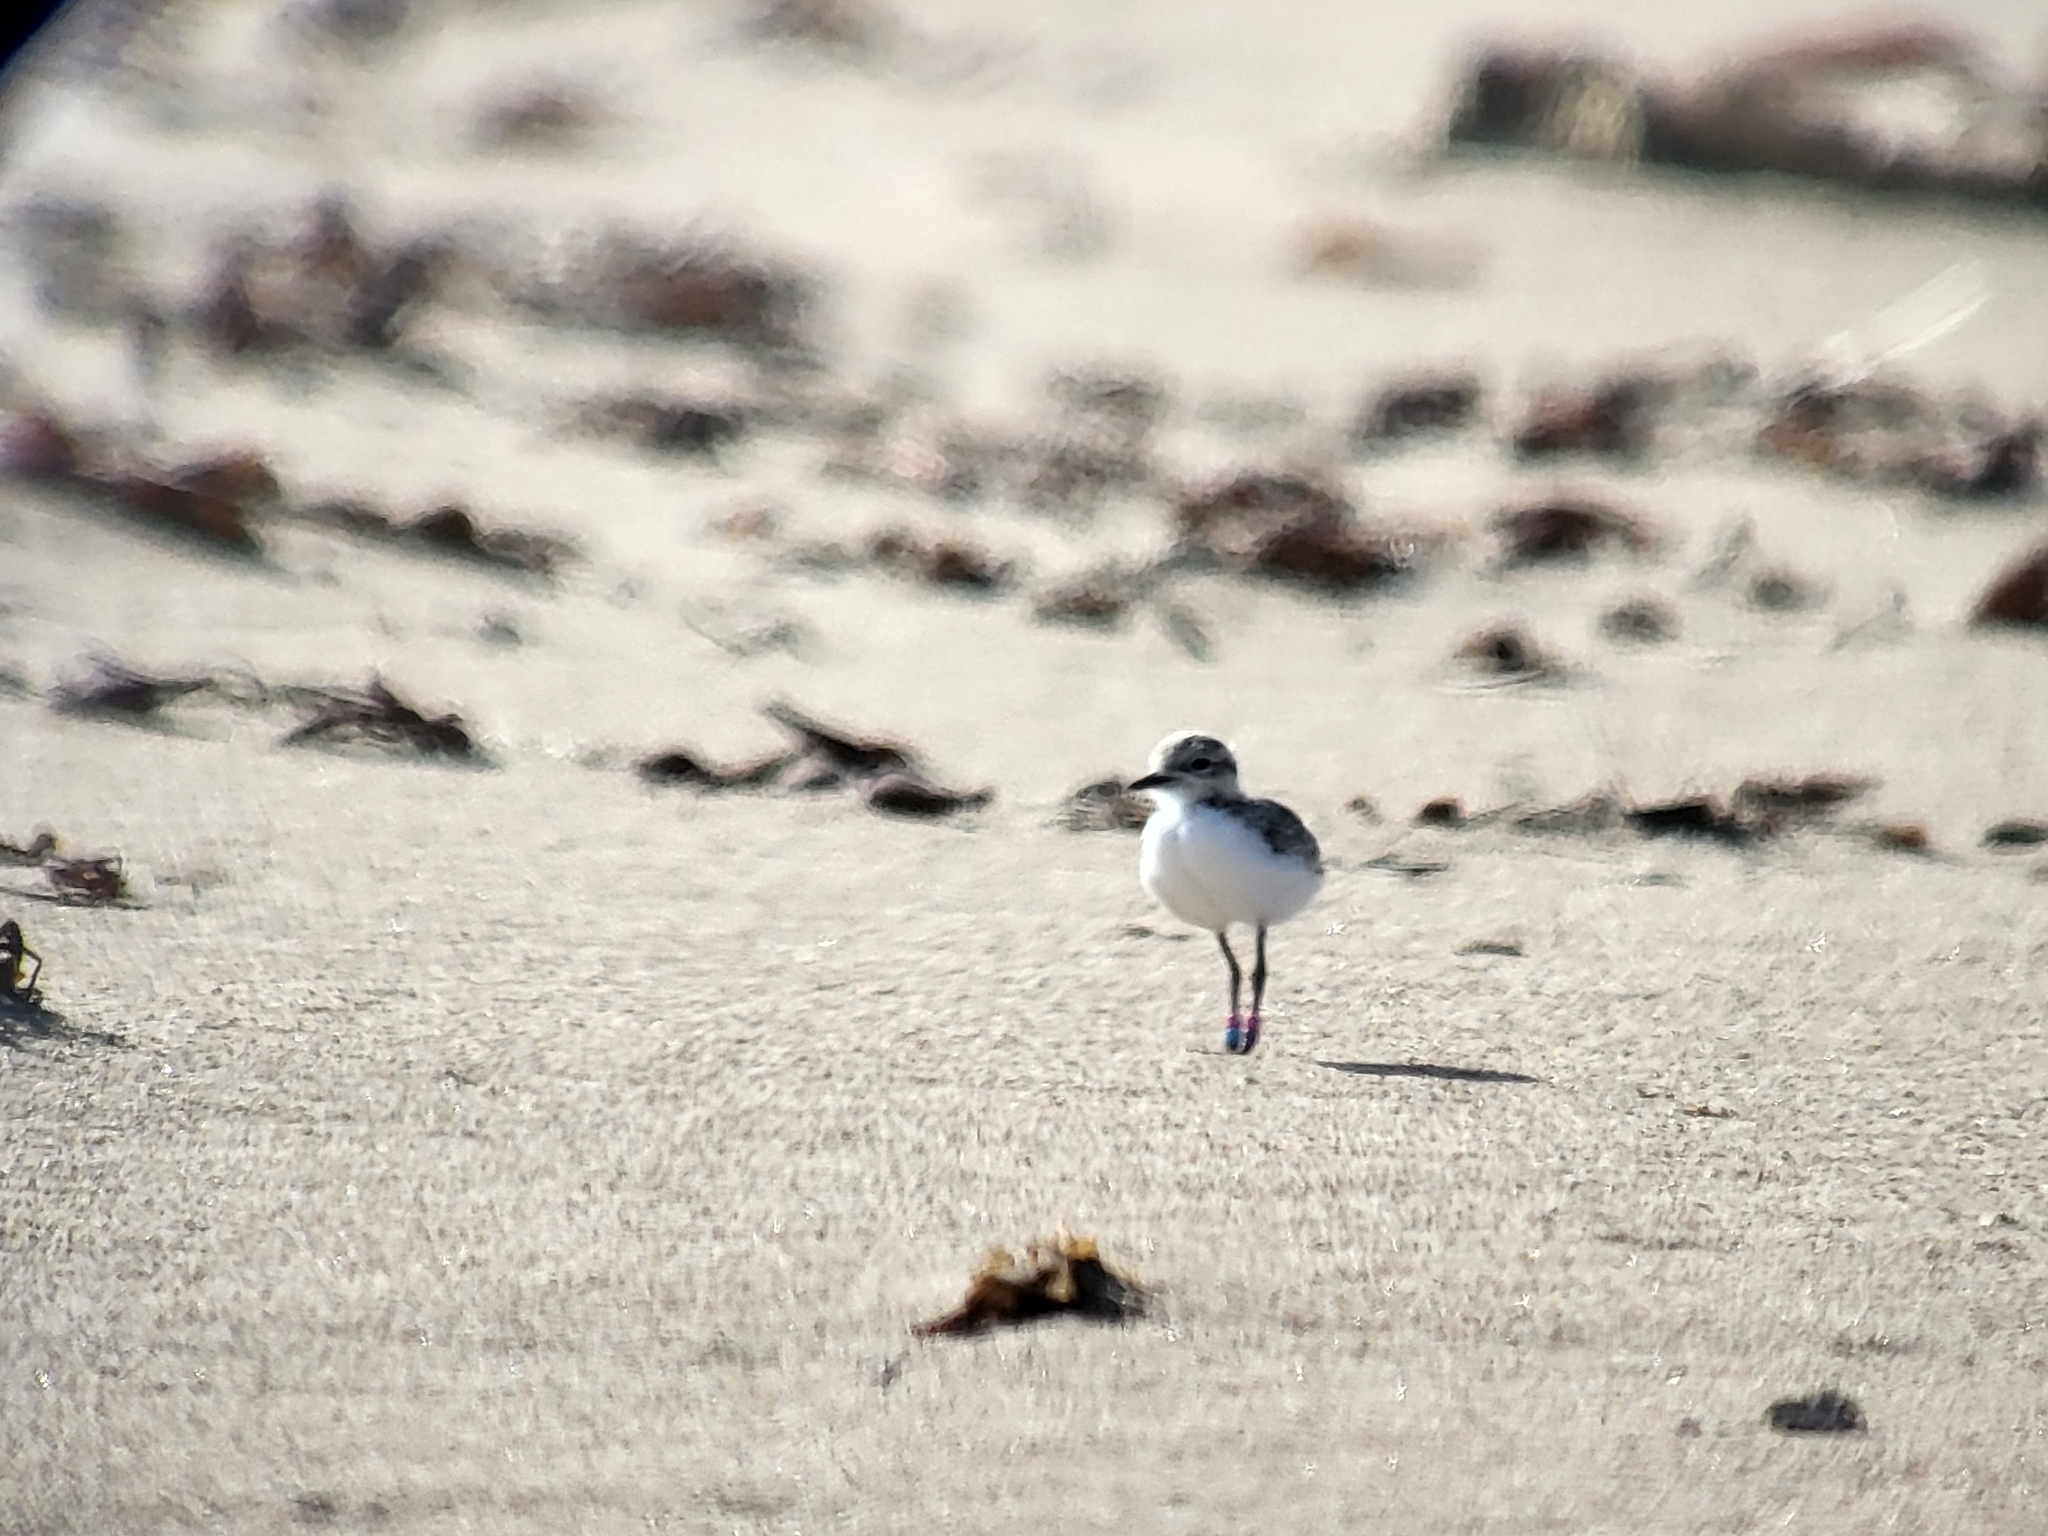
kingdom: Animalia
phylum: Chordata
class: Aves
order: Charadriiformes
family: Charadriidae
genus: Anarhynchus
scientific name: Anarhynchus
